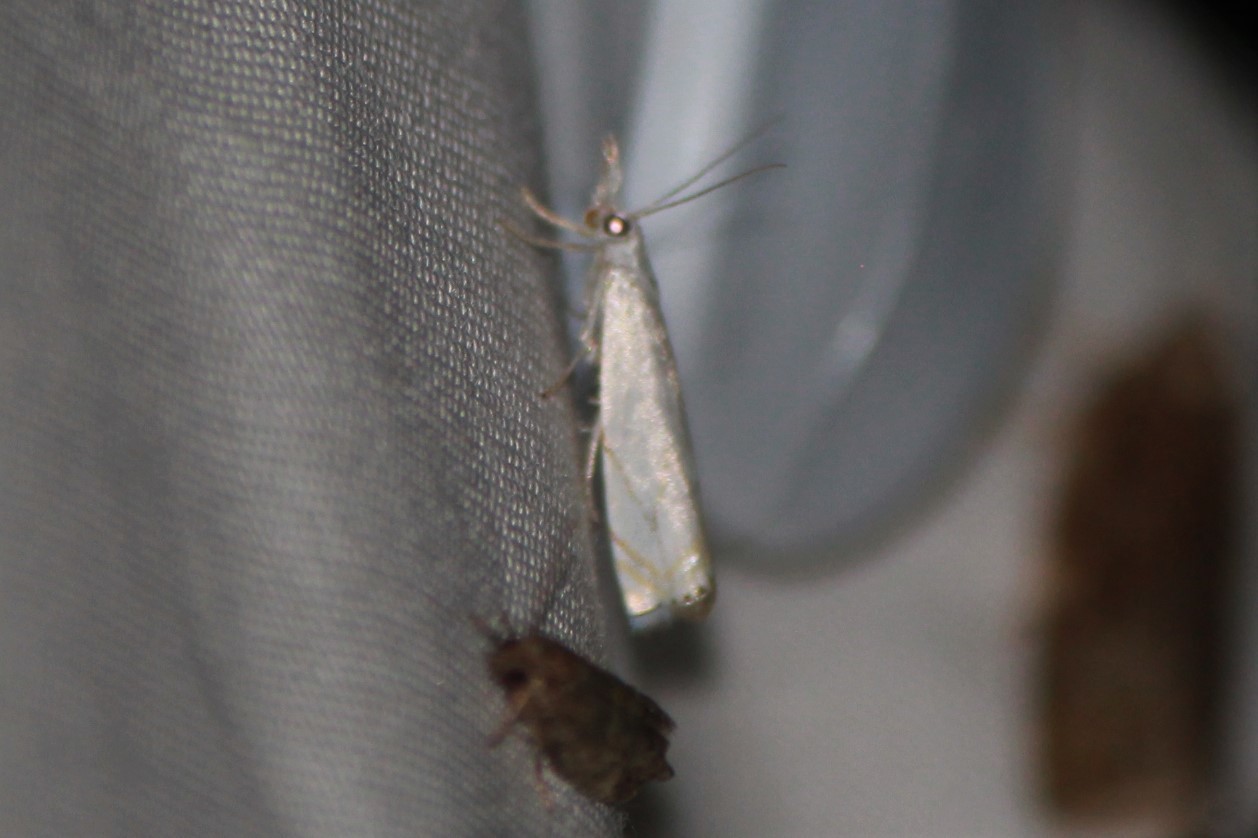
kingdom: Animalia
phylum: Arthropoda
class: Insecta
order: Lepidoptera
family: Crambidae
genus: Crambus
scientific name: Crambus albellus
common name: Small white grass-veneer
